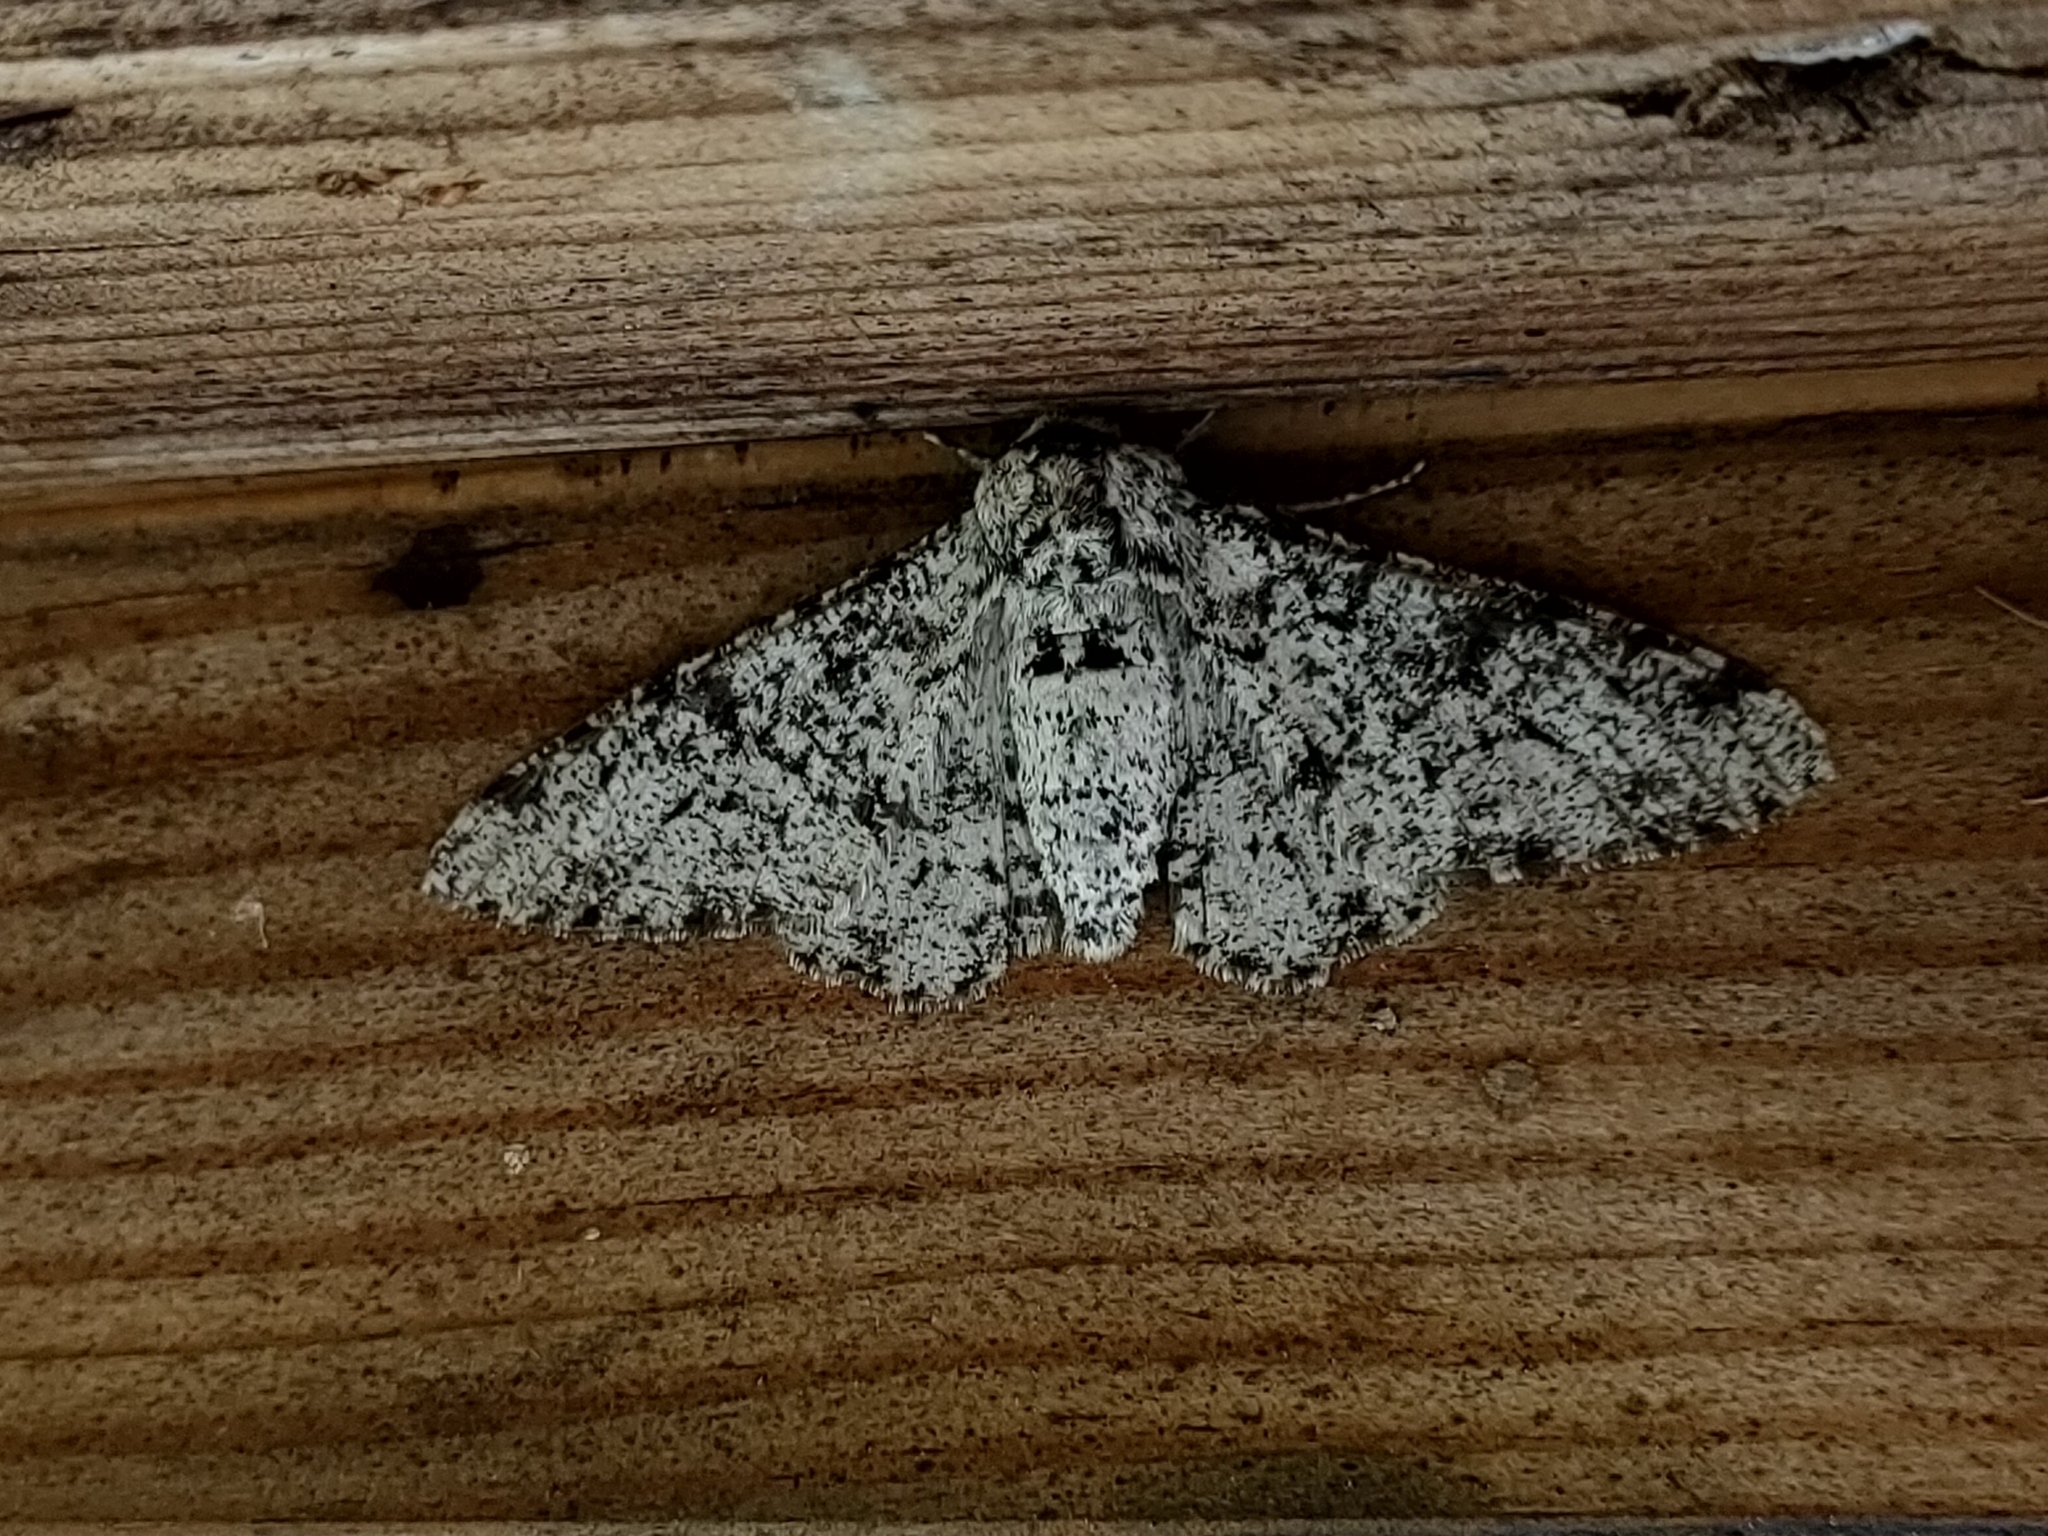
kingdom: Animalia
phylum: Arthropoda
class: Insecta
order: Lepidoptera
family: Geometridae
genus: Biston
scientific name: Biston betularia
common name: Peppered moth
